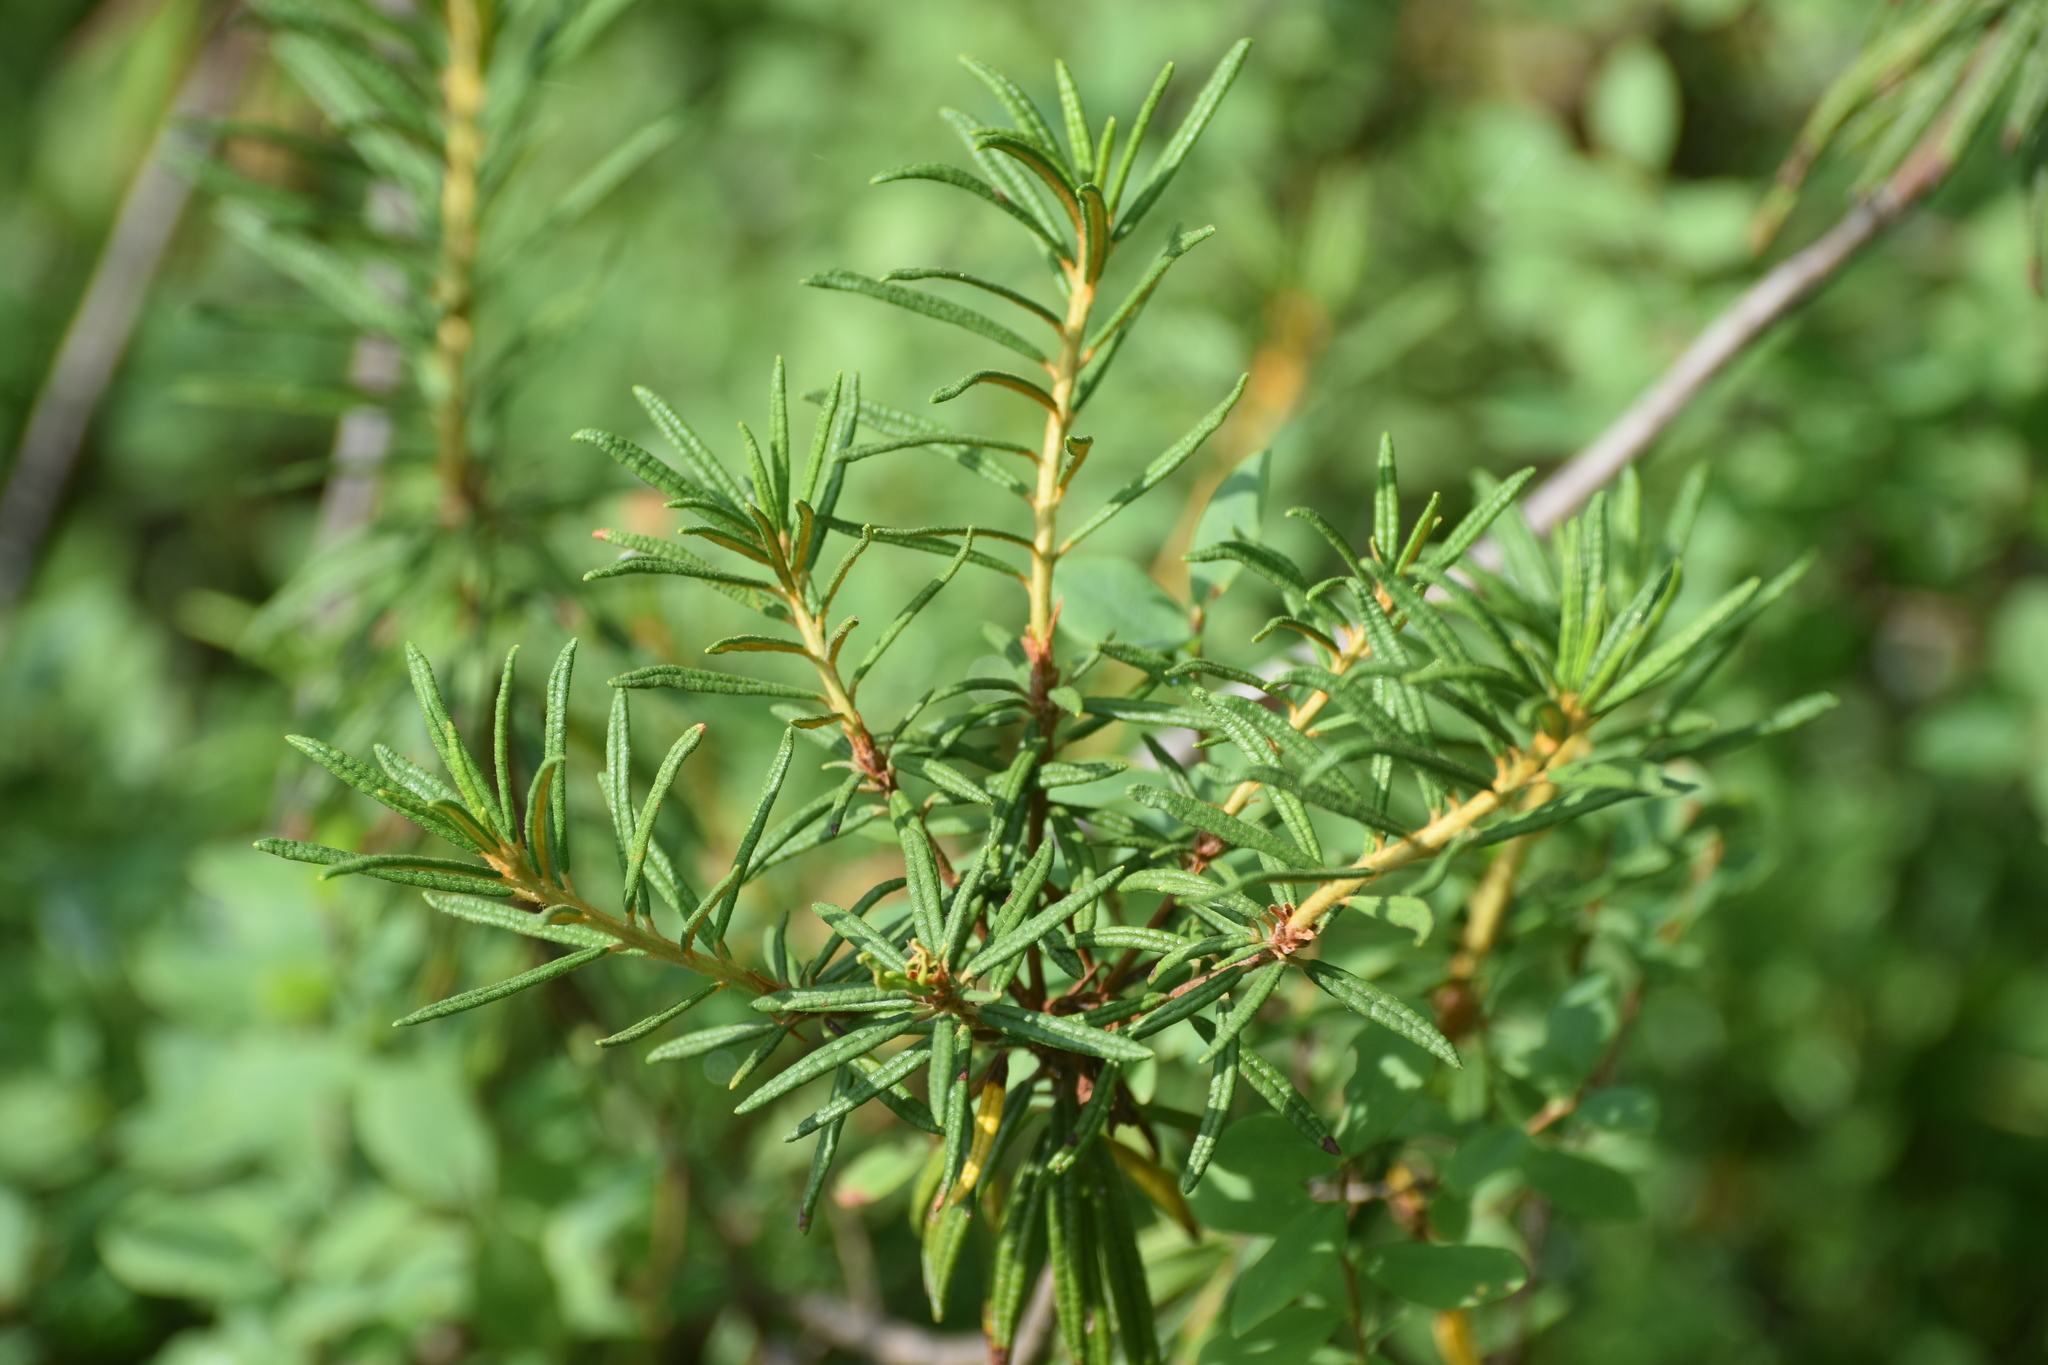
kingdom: Plantae
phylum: Tracheophyta
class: Magnoliopsida
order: Ericales
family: Ericaceae
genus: Rhododendron
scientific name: Rhododendron tomentosum
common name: Marsh labrador tea
